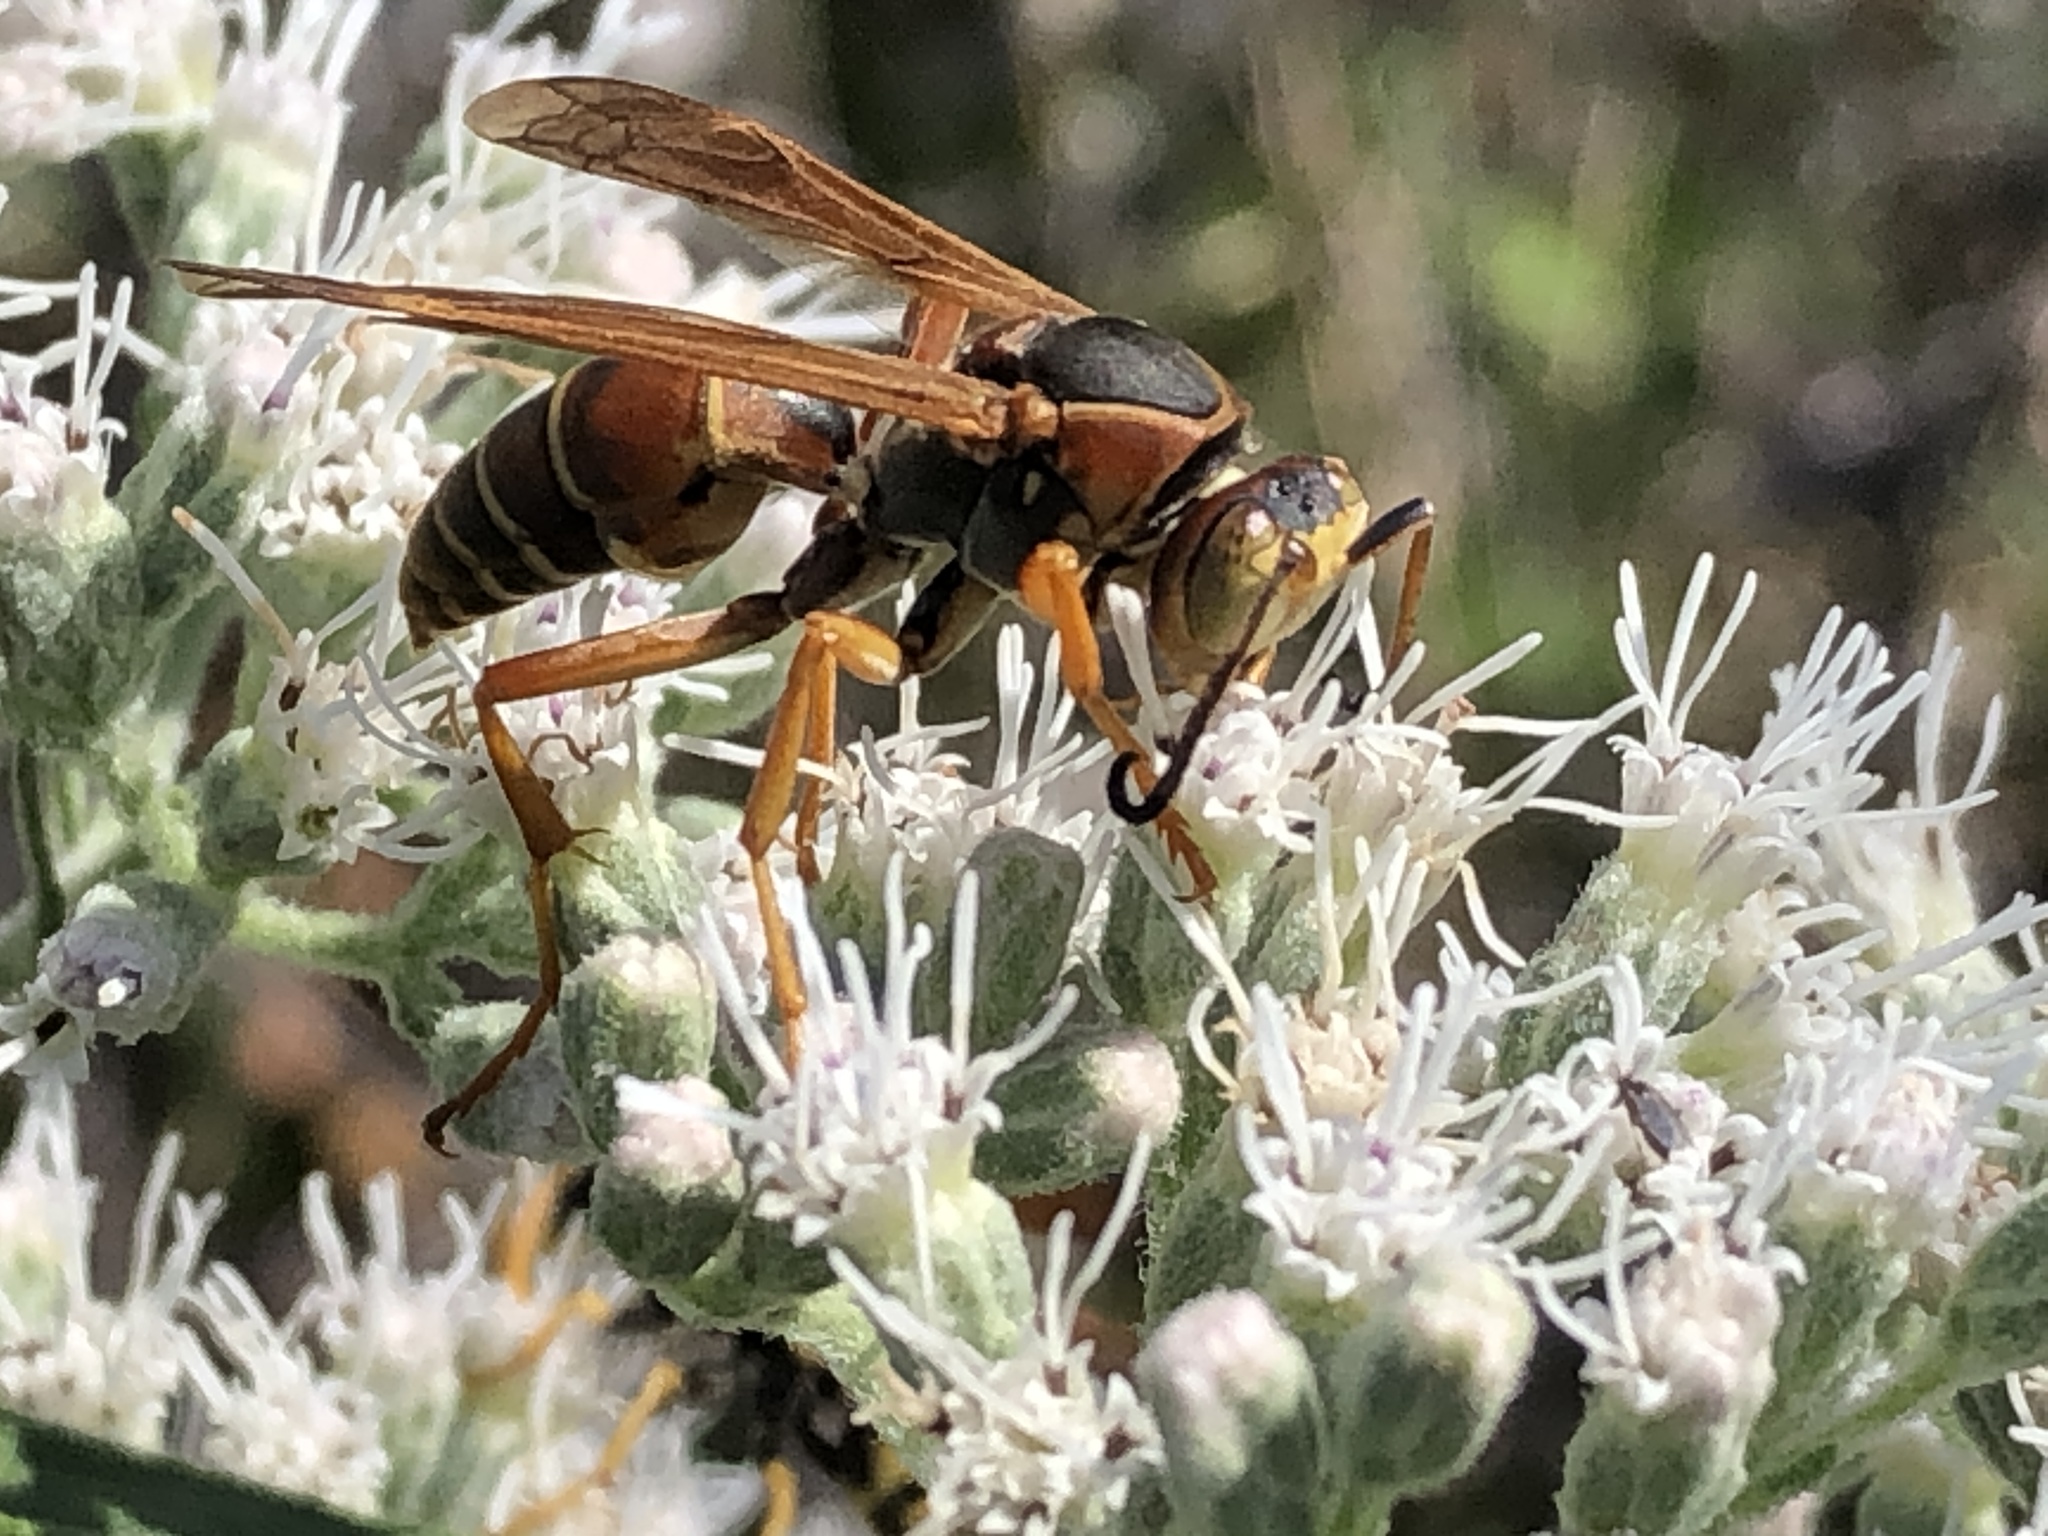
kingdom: Animalia
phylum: Arthropoda
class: Insecta
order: Hymenoptera
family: Eumenidae
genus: Polistes
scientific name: Polistes fuscatus
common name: Dark paper wasp
